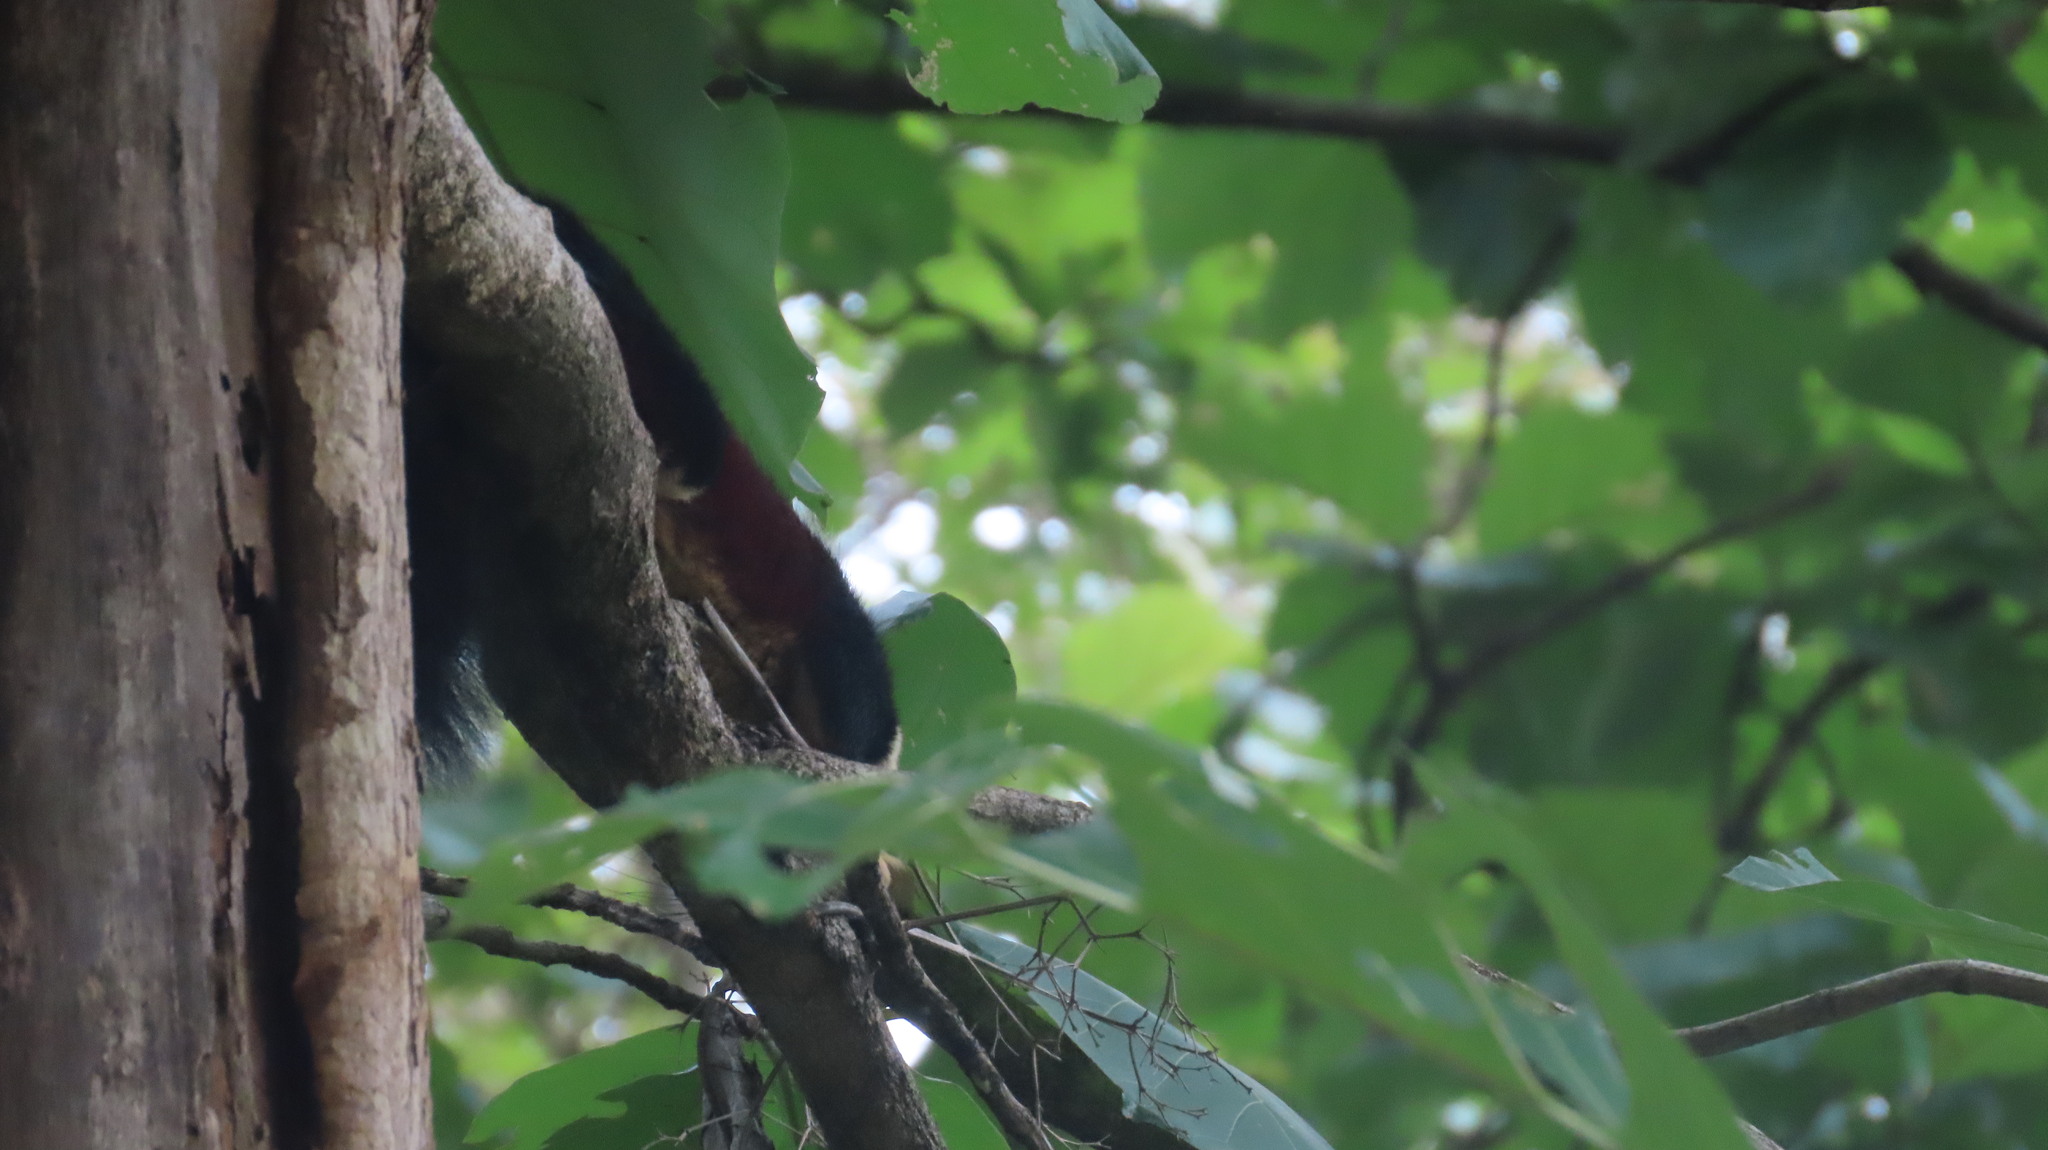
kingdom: Animalia
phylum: Chordata
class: Mammalia
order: Rodentia
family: Sciuridae
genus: Ratufa
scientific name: Ratufa indica
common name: Indian giant squirrel
